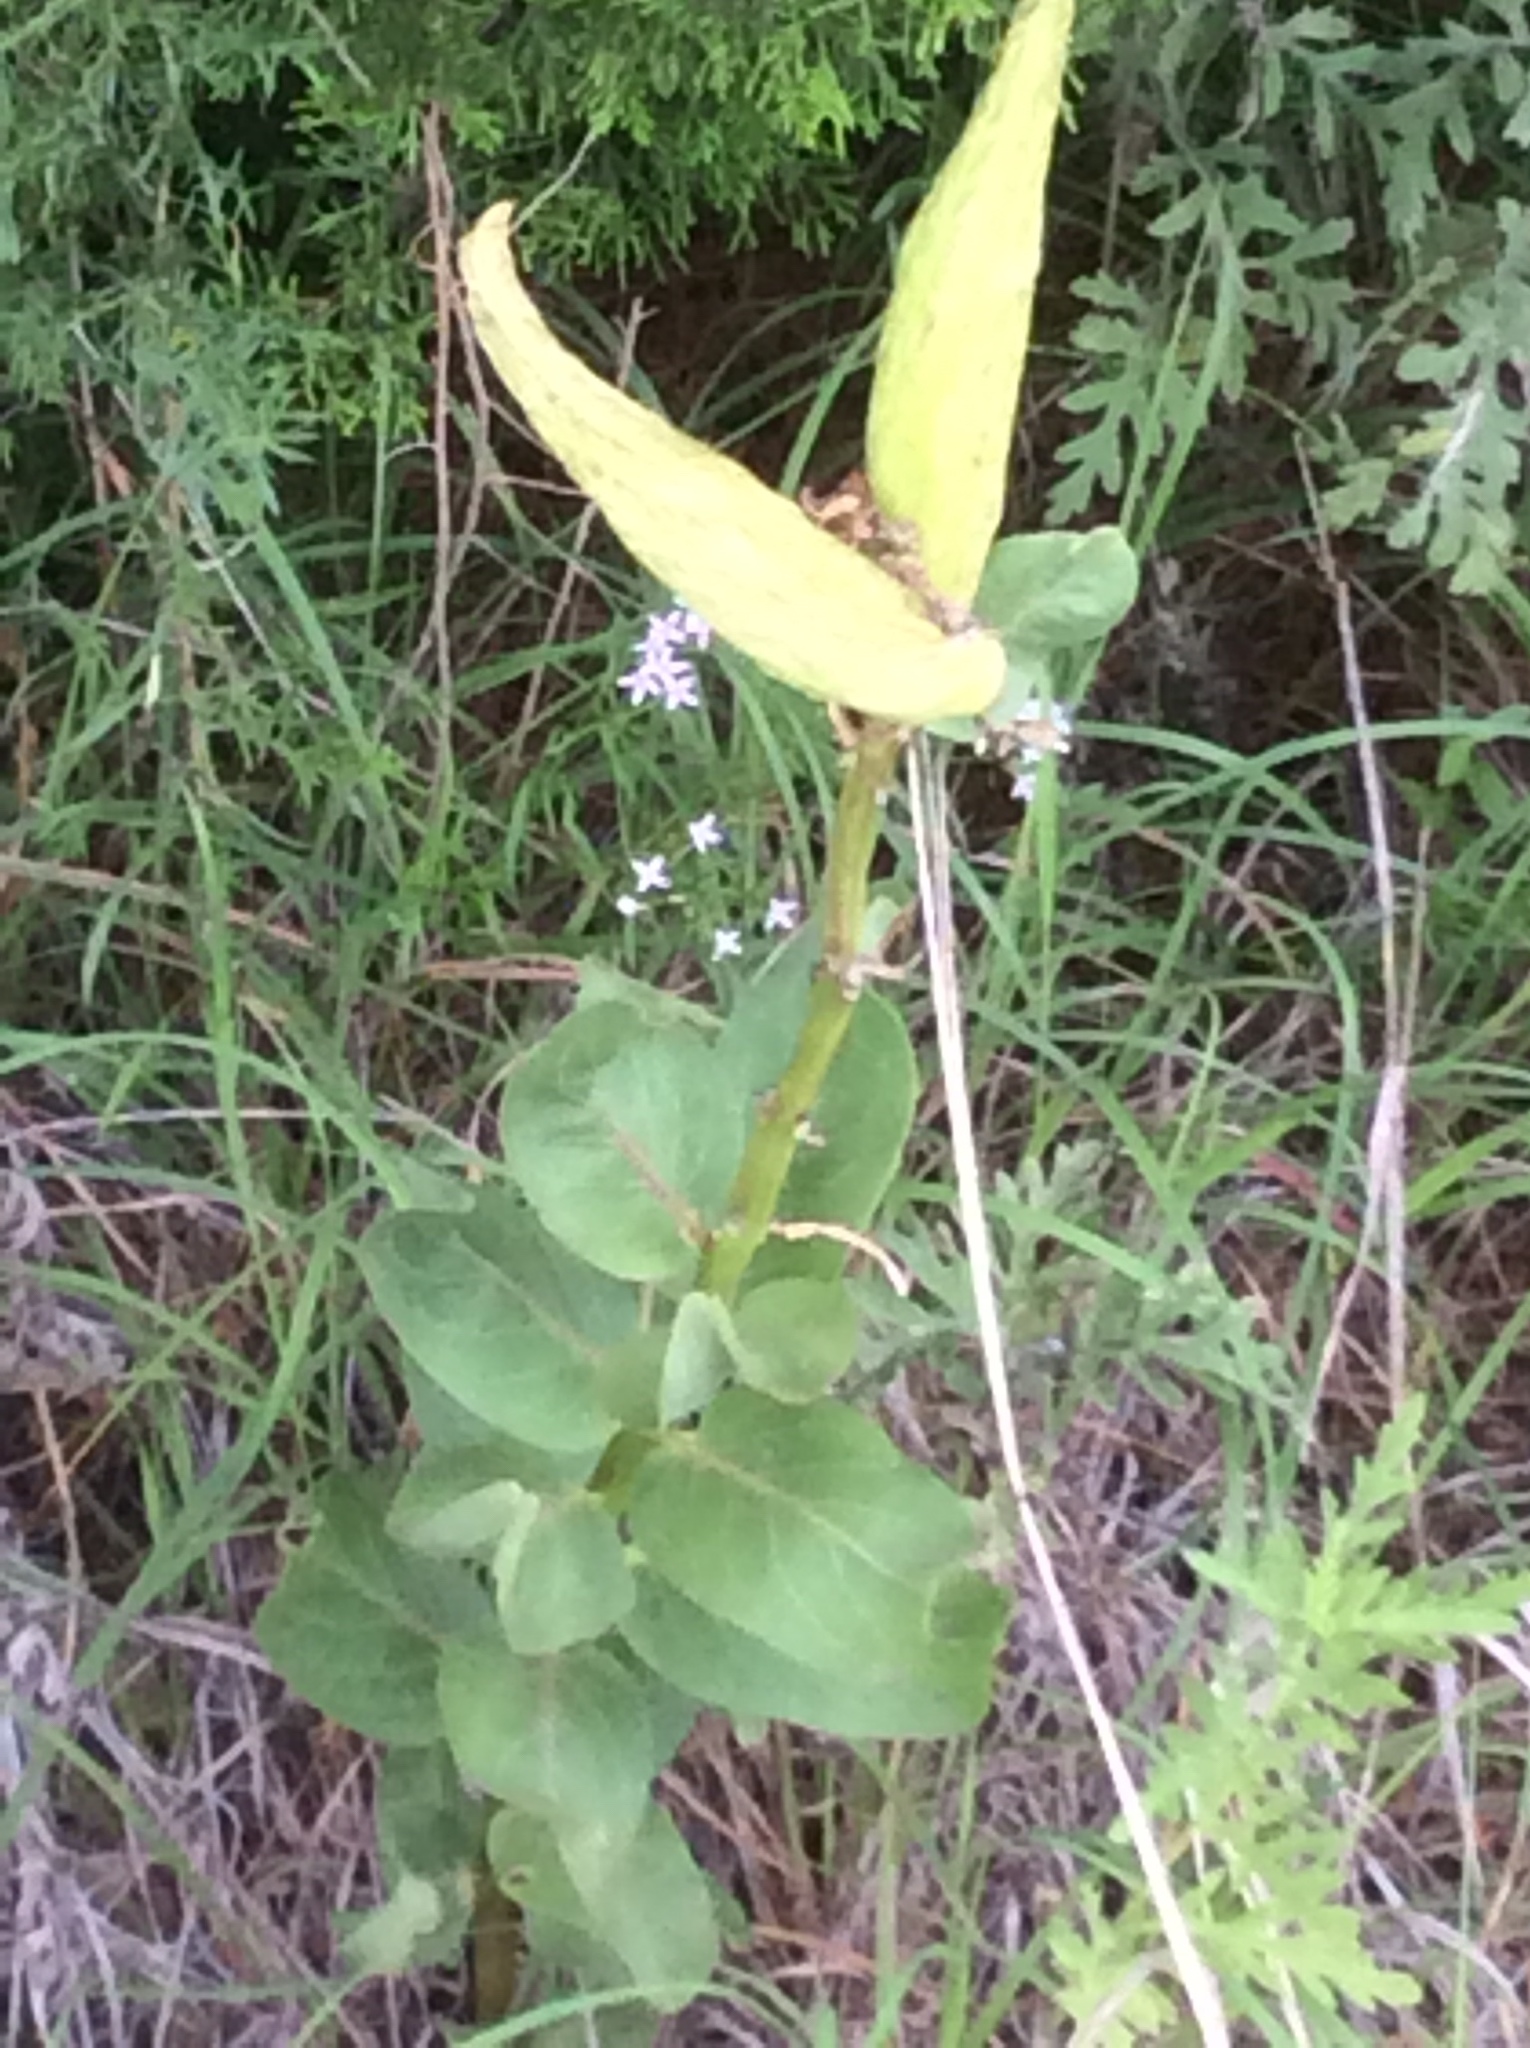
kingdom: Plantae
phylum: Tracheophyta
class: Magnoliopsida
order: Gentianales
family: Apocynaceae
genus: Asclepias
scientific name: Asclepias viridis
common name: Antelope-horns
